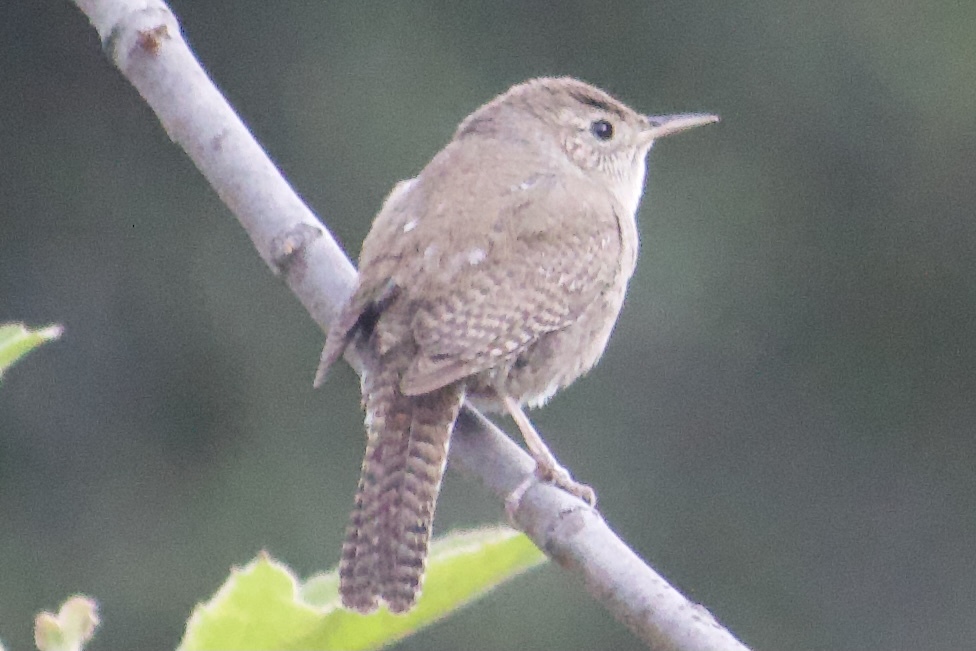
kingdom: Animalia
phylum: Chordata
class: Aves
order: Passeriformes
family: Troglodytidae
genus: Troglodytes
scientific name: Troglodytes aedon
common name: House wren
